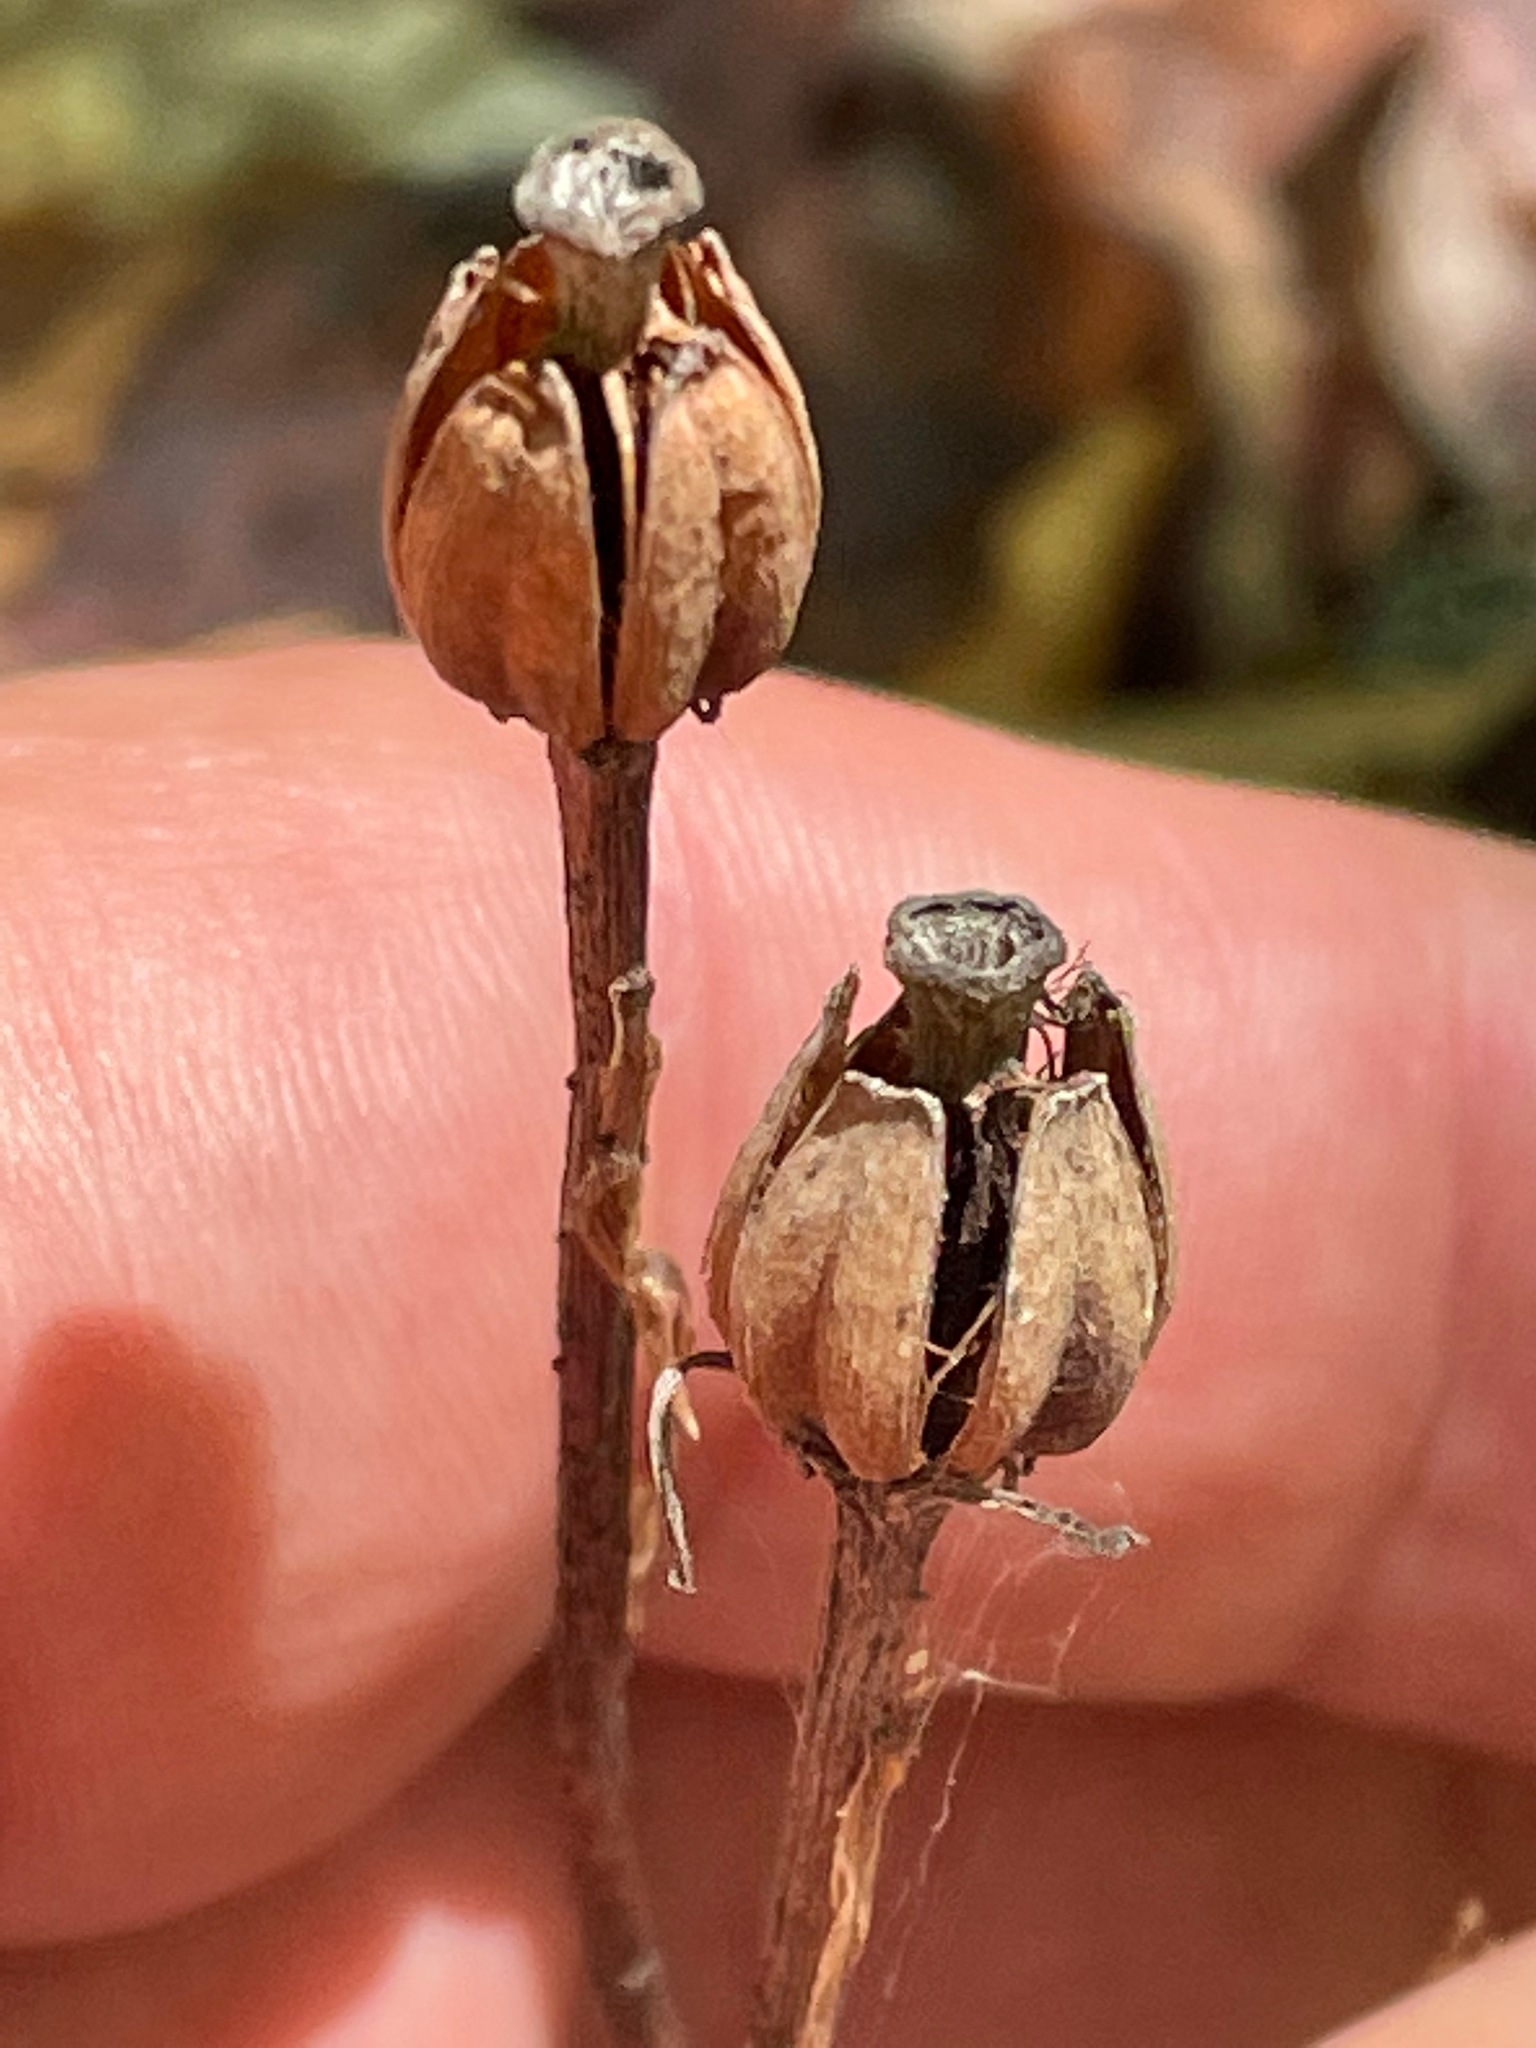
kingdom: Plantae
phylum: Tracheophyta
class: Magnoliopsida
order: Ericales
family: Ericaceae
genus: Monotropa
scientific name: Monotropa uniflora
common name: Convulsion root
